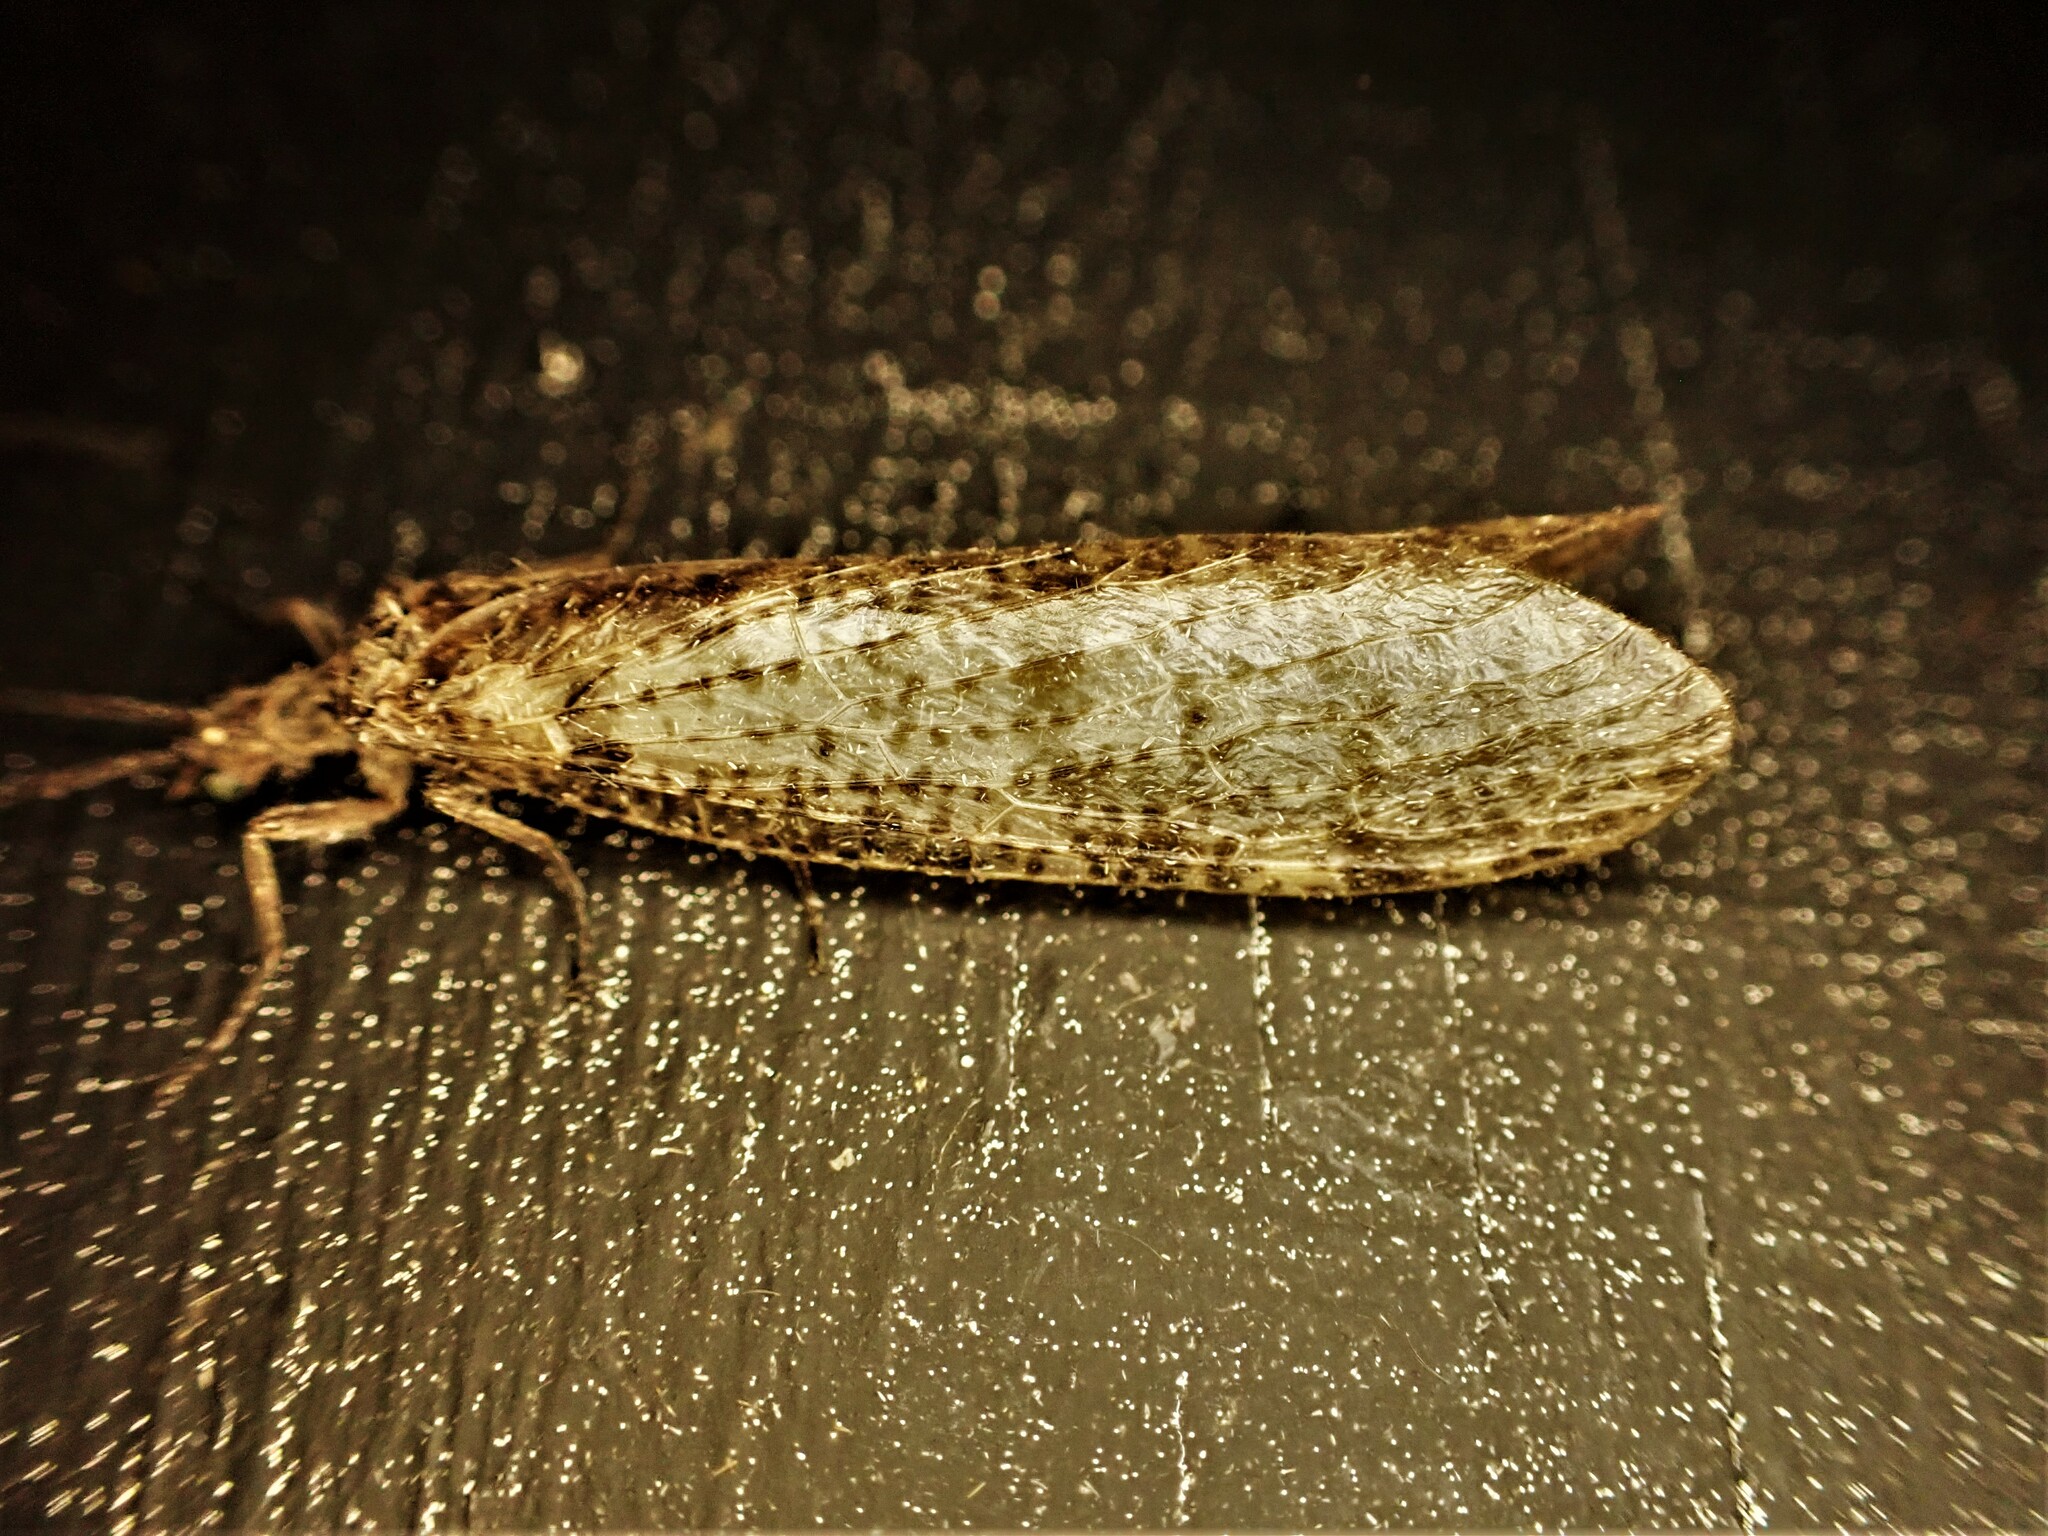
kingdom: Animalia
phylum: Arthropoda
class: Insecta
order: Megaloptera
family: Corydalidae
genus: Archichauliodes
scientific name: Archichauliodes diversus
